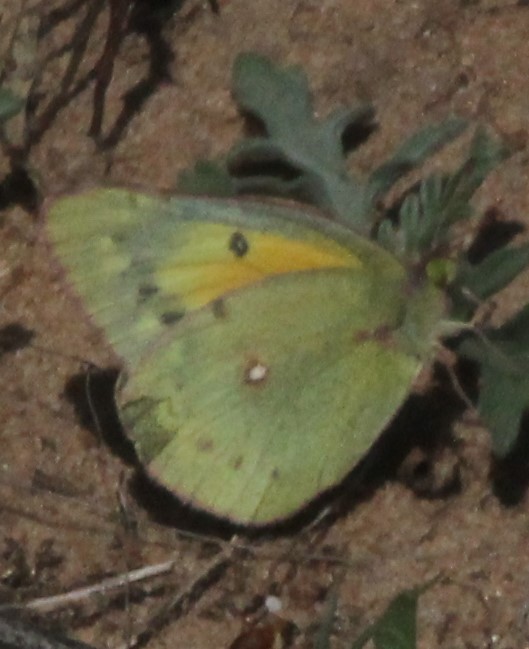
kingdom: Animalia
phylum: Arthropoda
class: Insecta
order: Lepidoptera
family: Pieridae
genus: Colias
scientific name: Colias eurytheme
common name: Alfalfa butterfly
